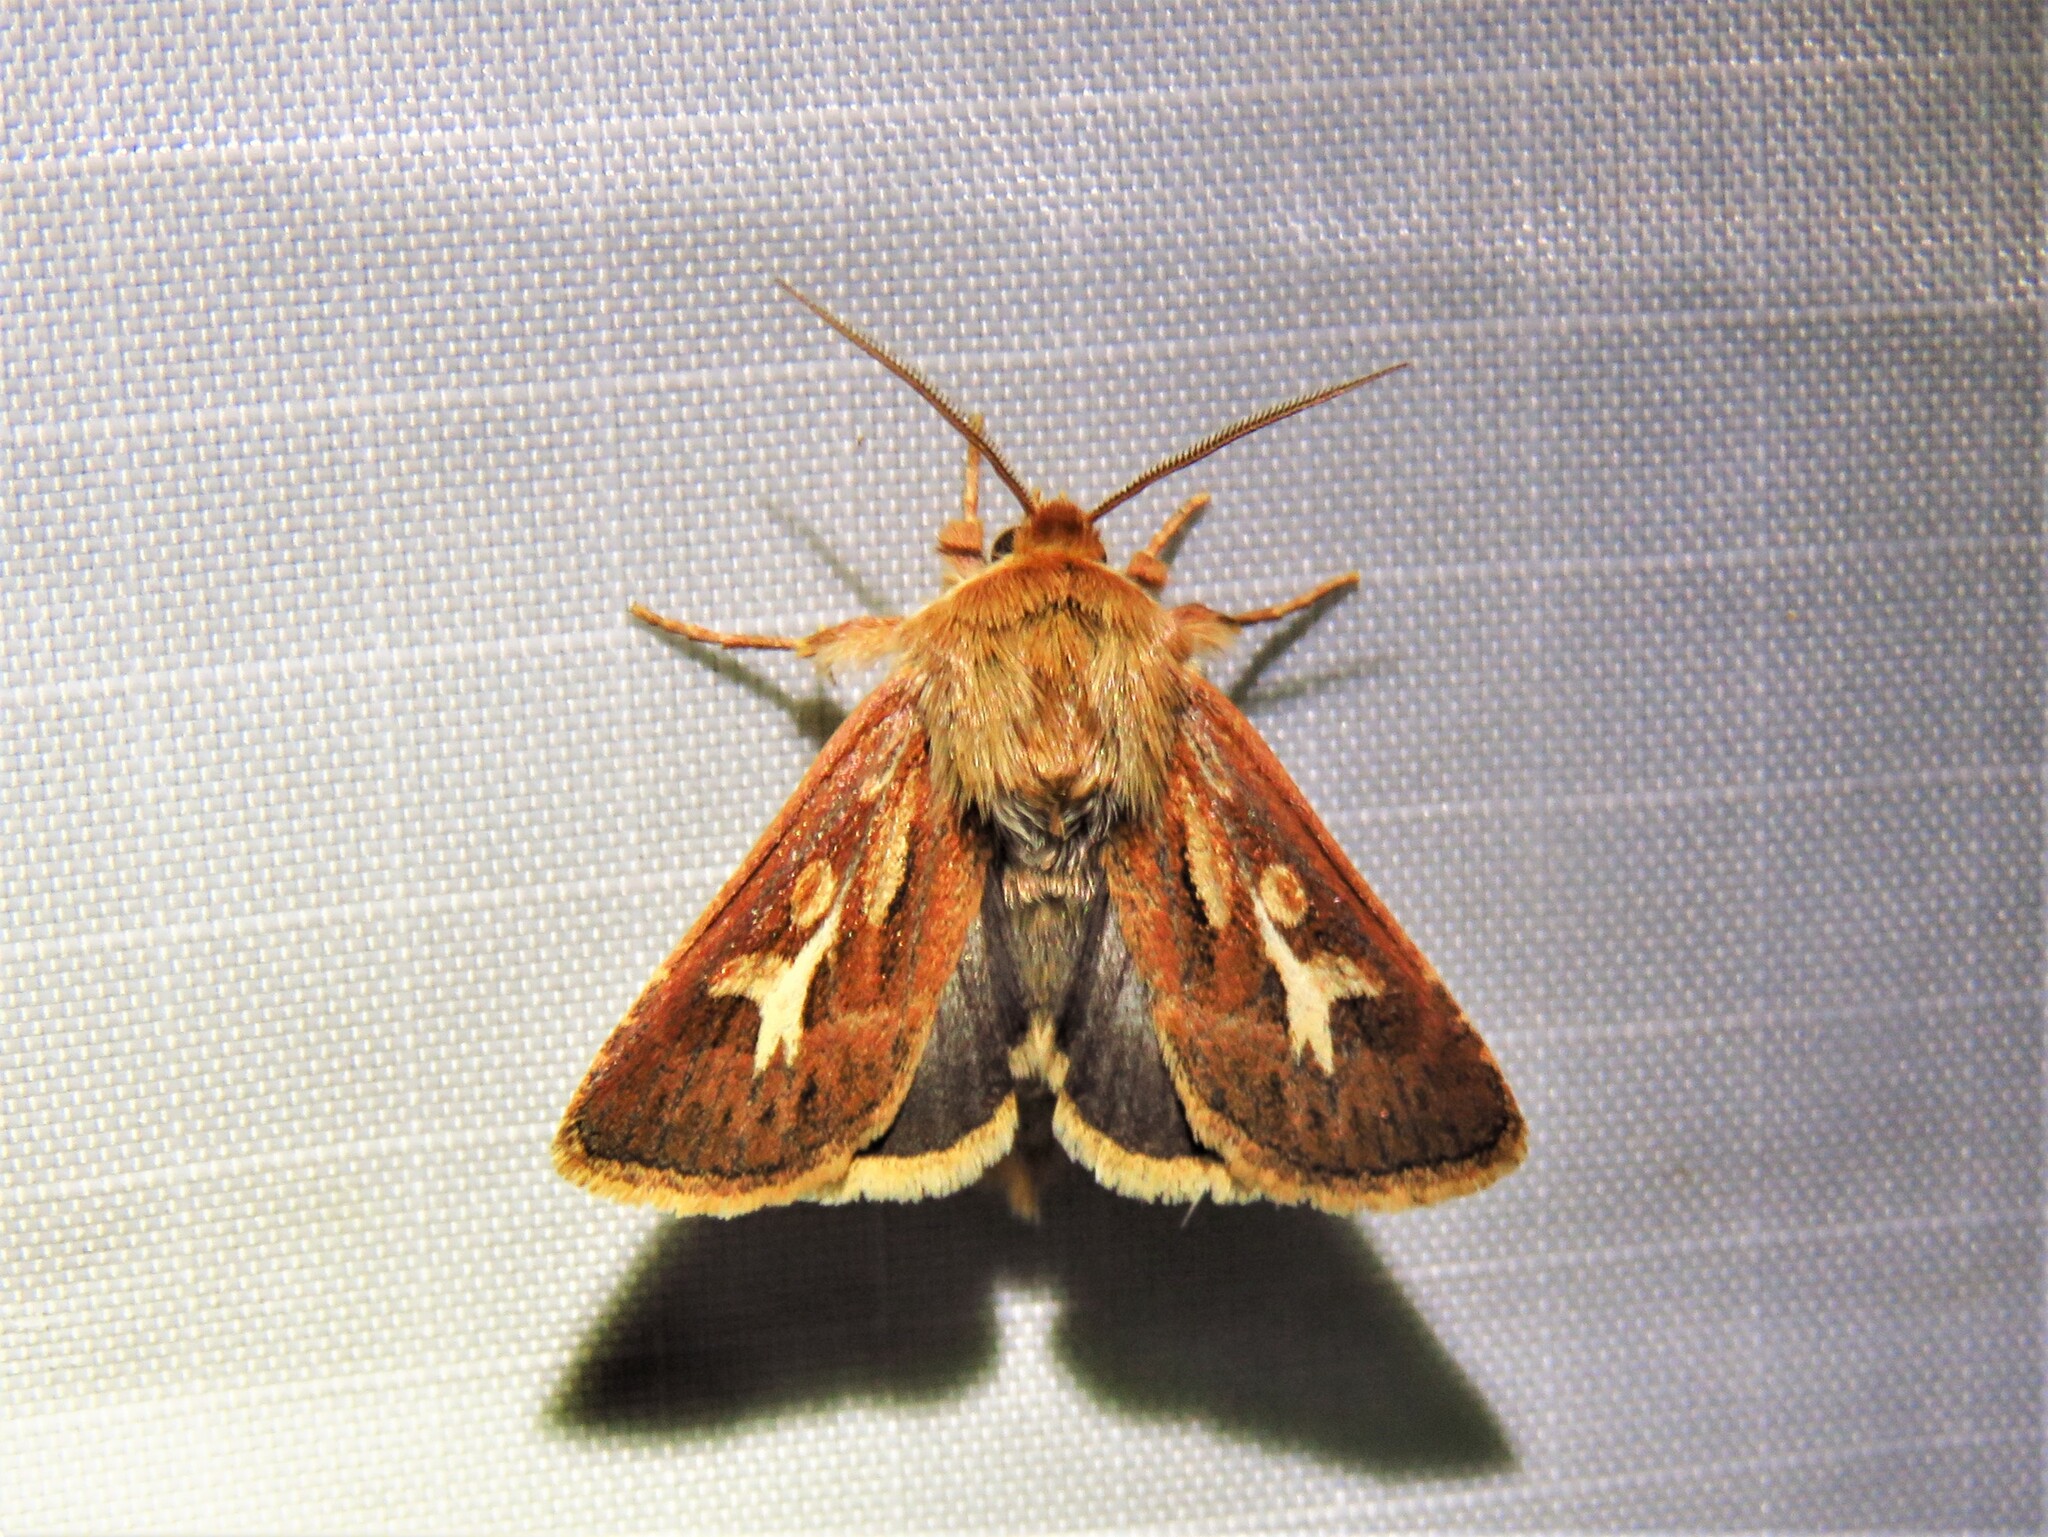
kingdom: Animalia
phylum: Arthropoda
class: Insecta
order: Lepidoptera
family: Noctuidae
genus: Cerapteryx
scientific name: Cerapteryx graminis
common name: Antler moth
